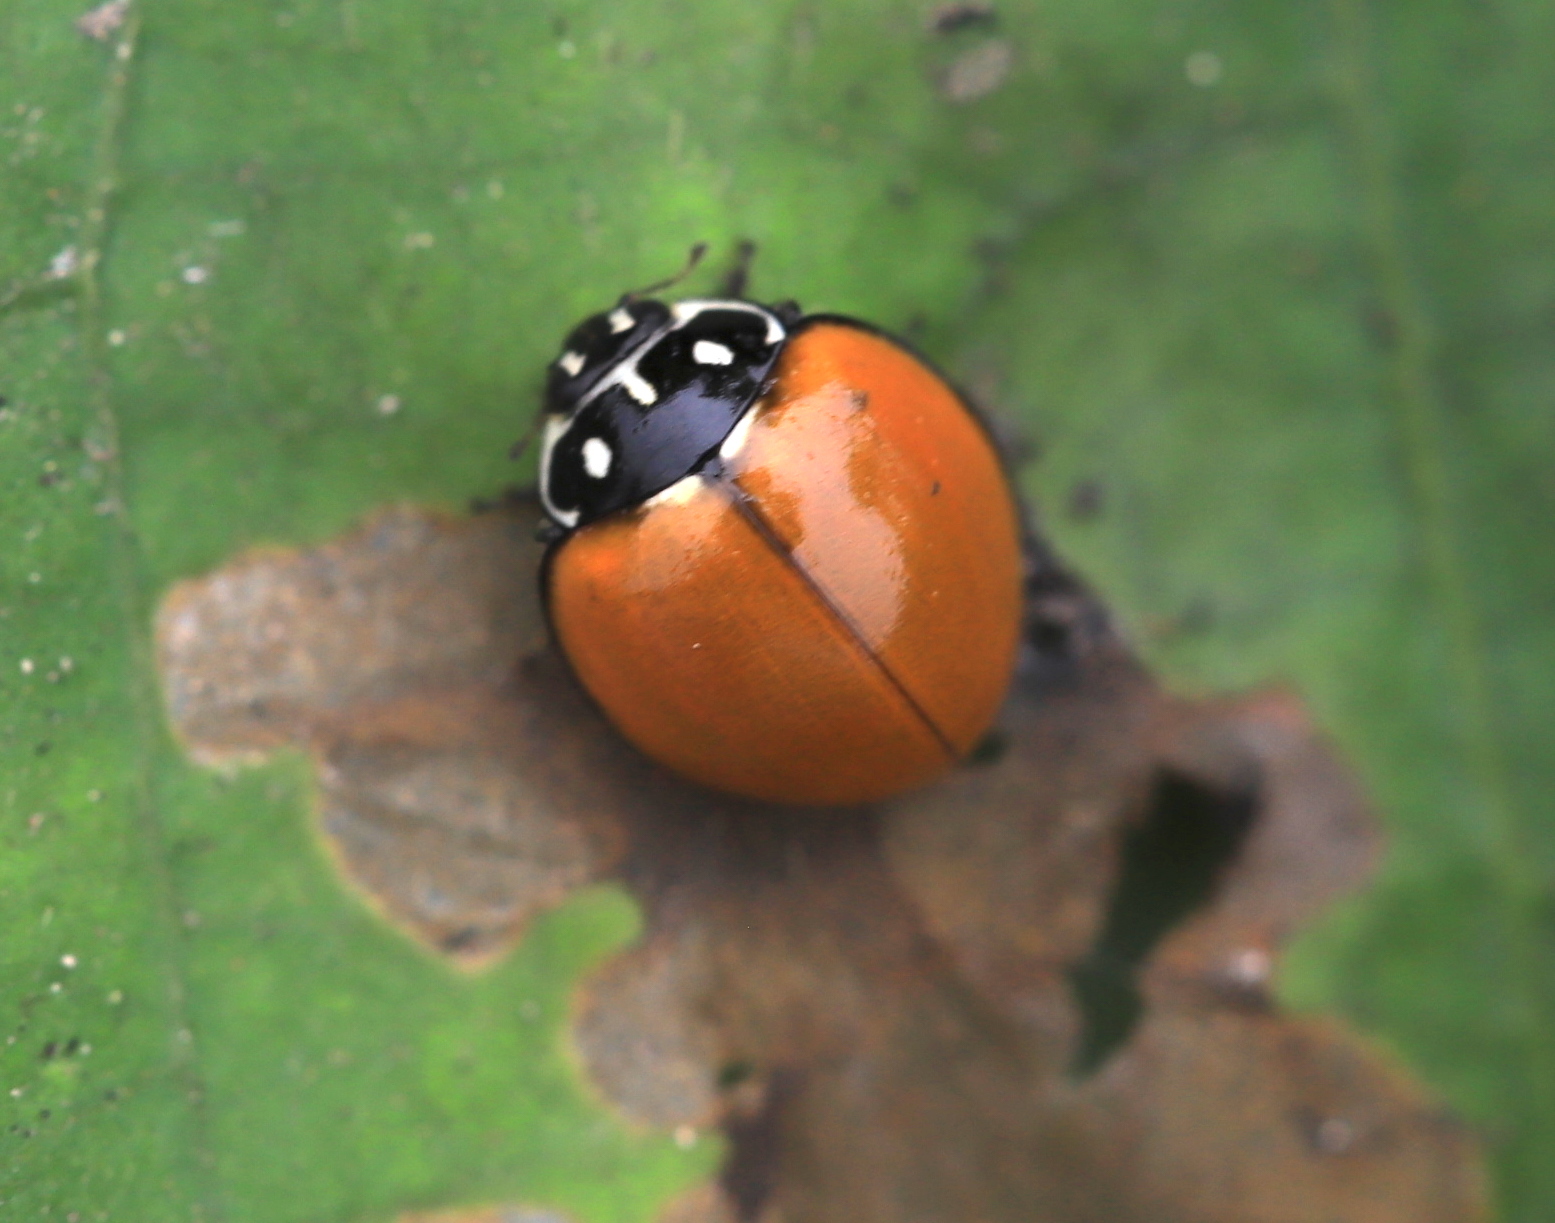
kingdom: Animalia
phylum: Arthropoda
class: Insecta
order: Coleoptera
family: Coccinellidae
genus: Cycloneda
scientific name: Cycloneda sanguinea
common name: Ladybird beetle
